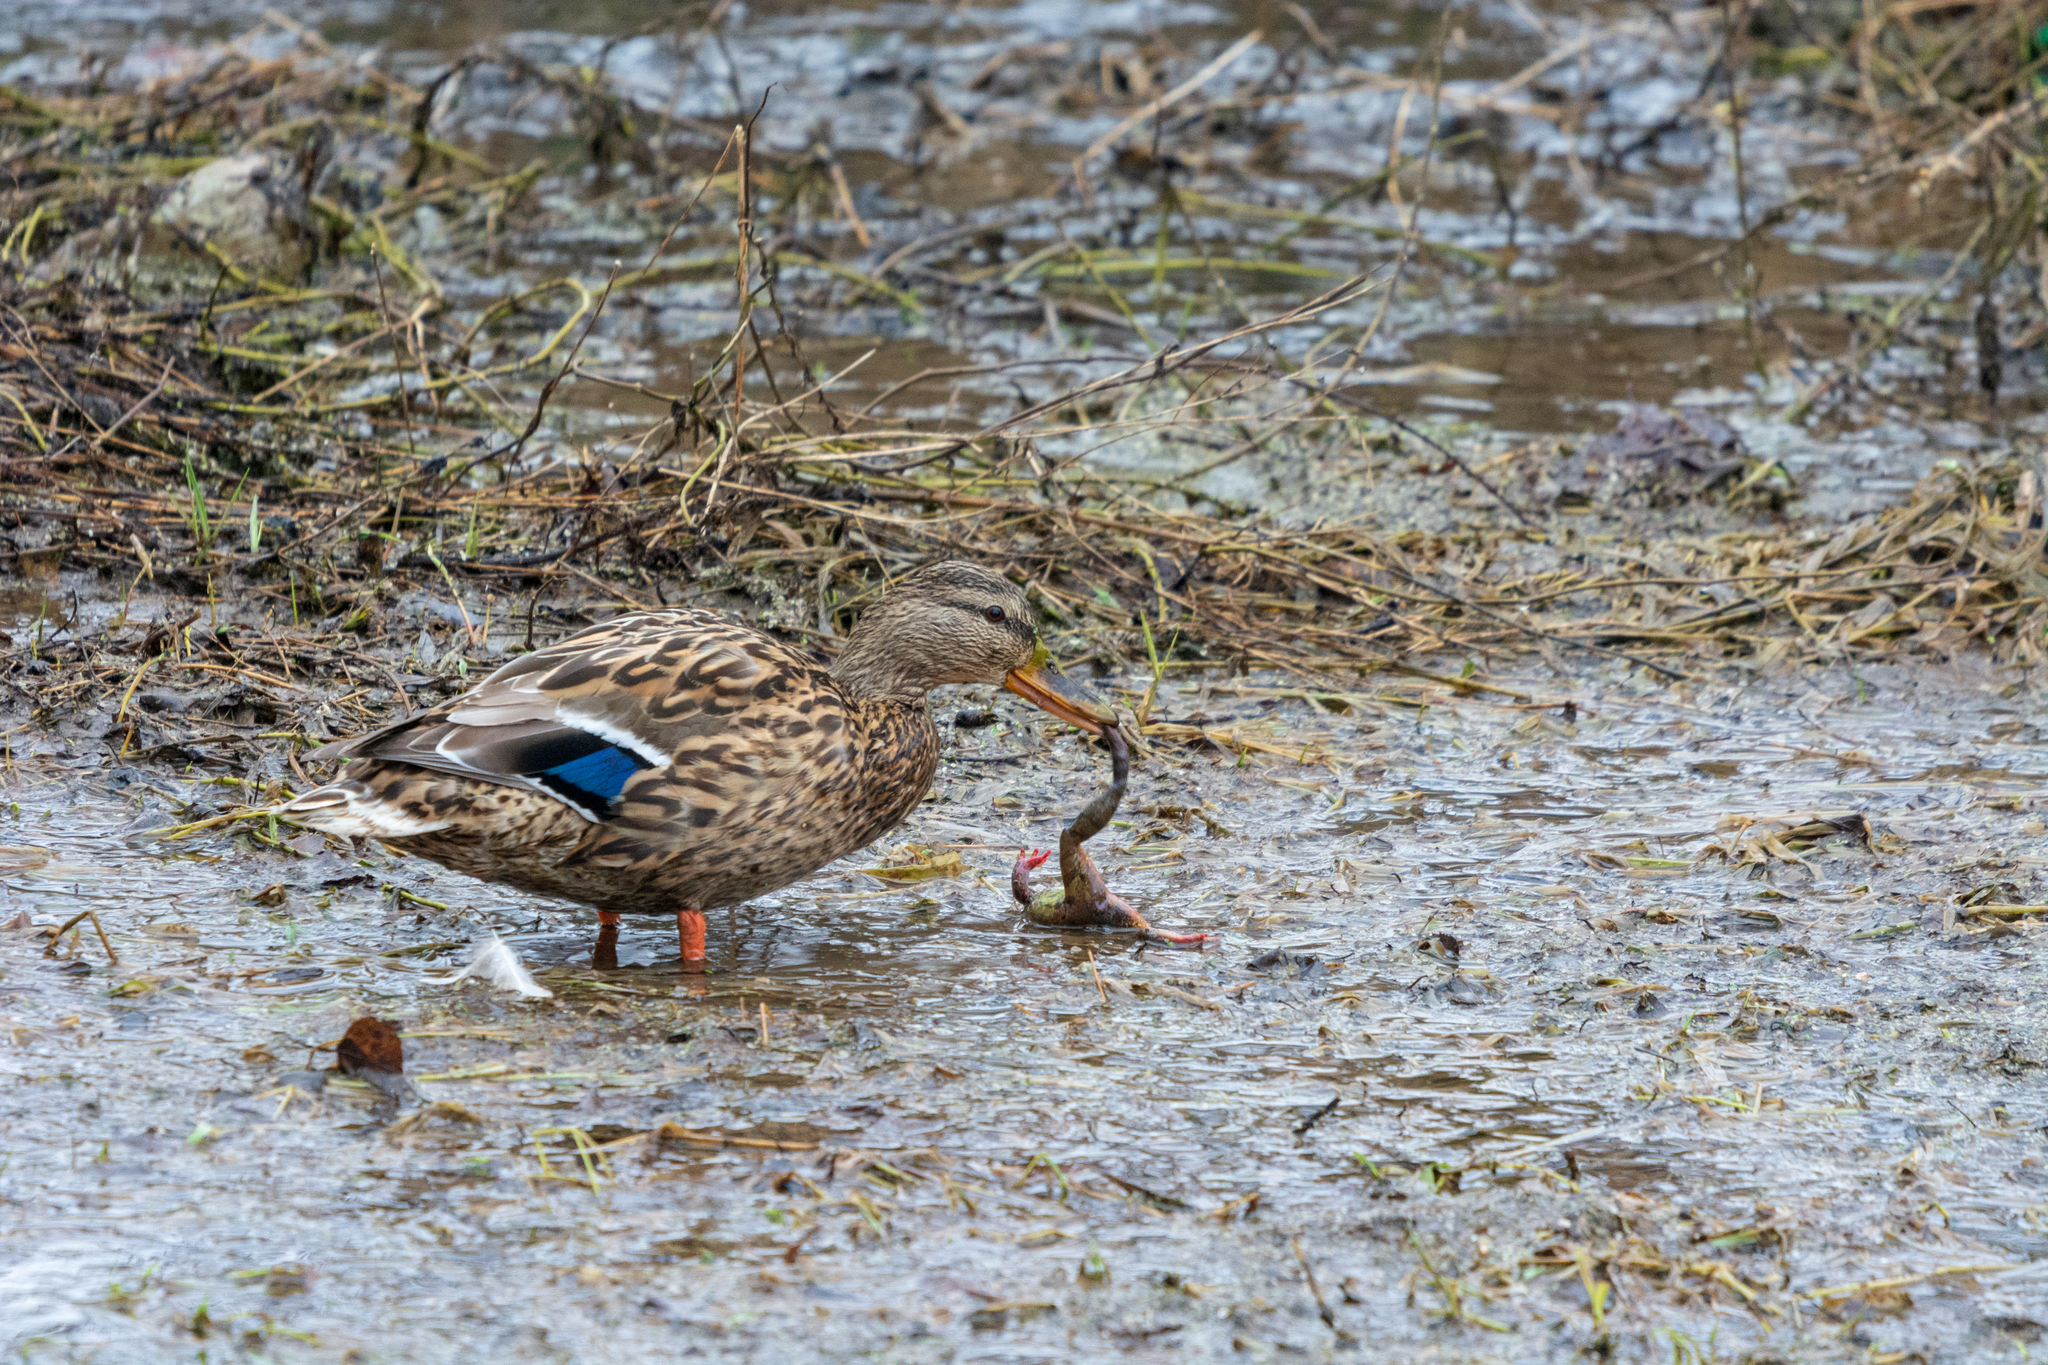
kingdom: Animalia
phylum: Chordata
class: Aves
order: Anseriformes
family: Anatidae
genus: Anas
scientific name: Anas platyrhynchos
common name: Mallard
